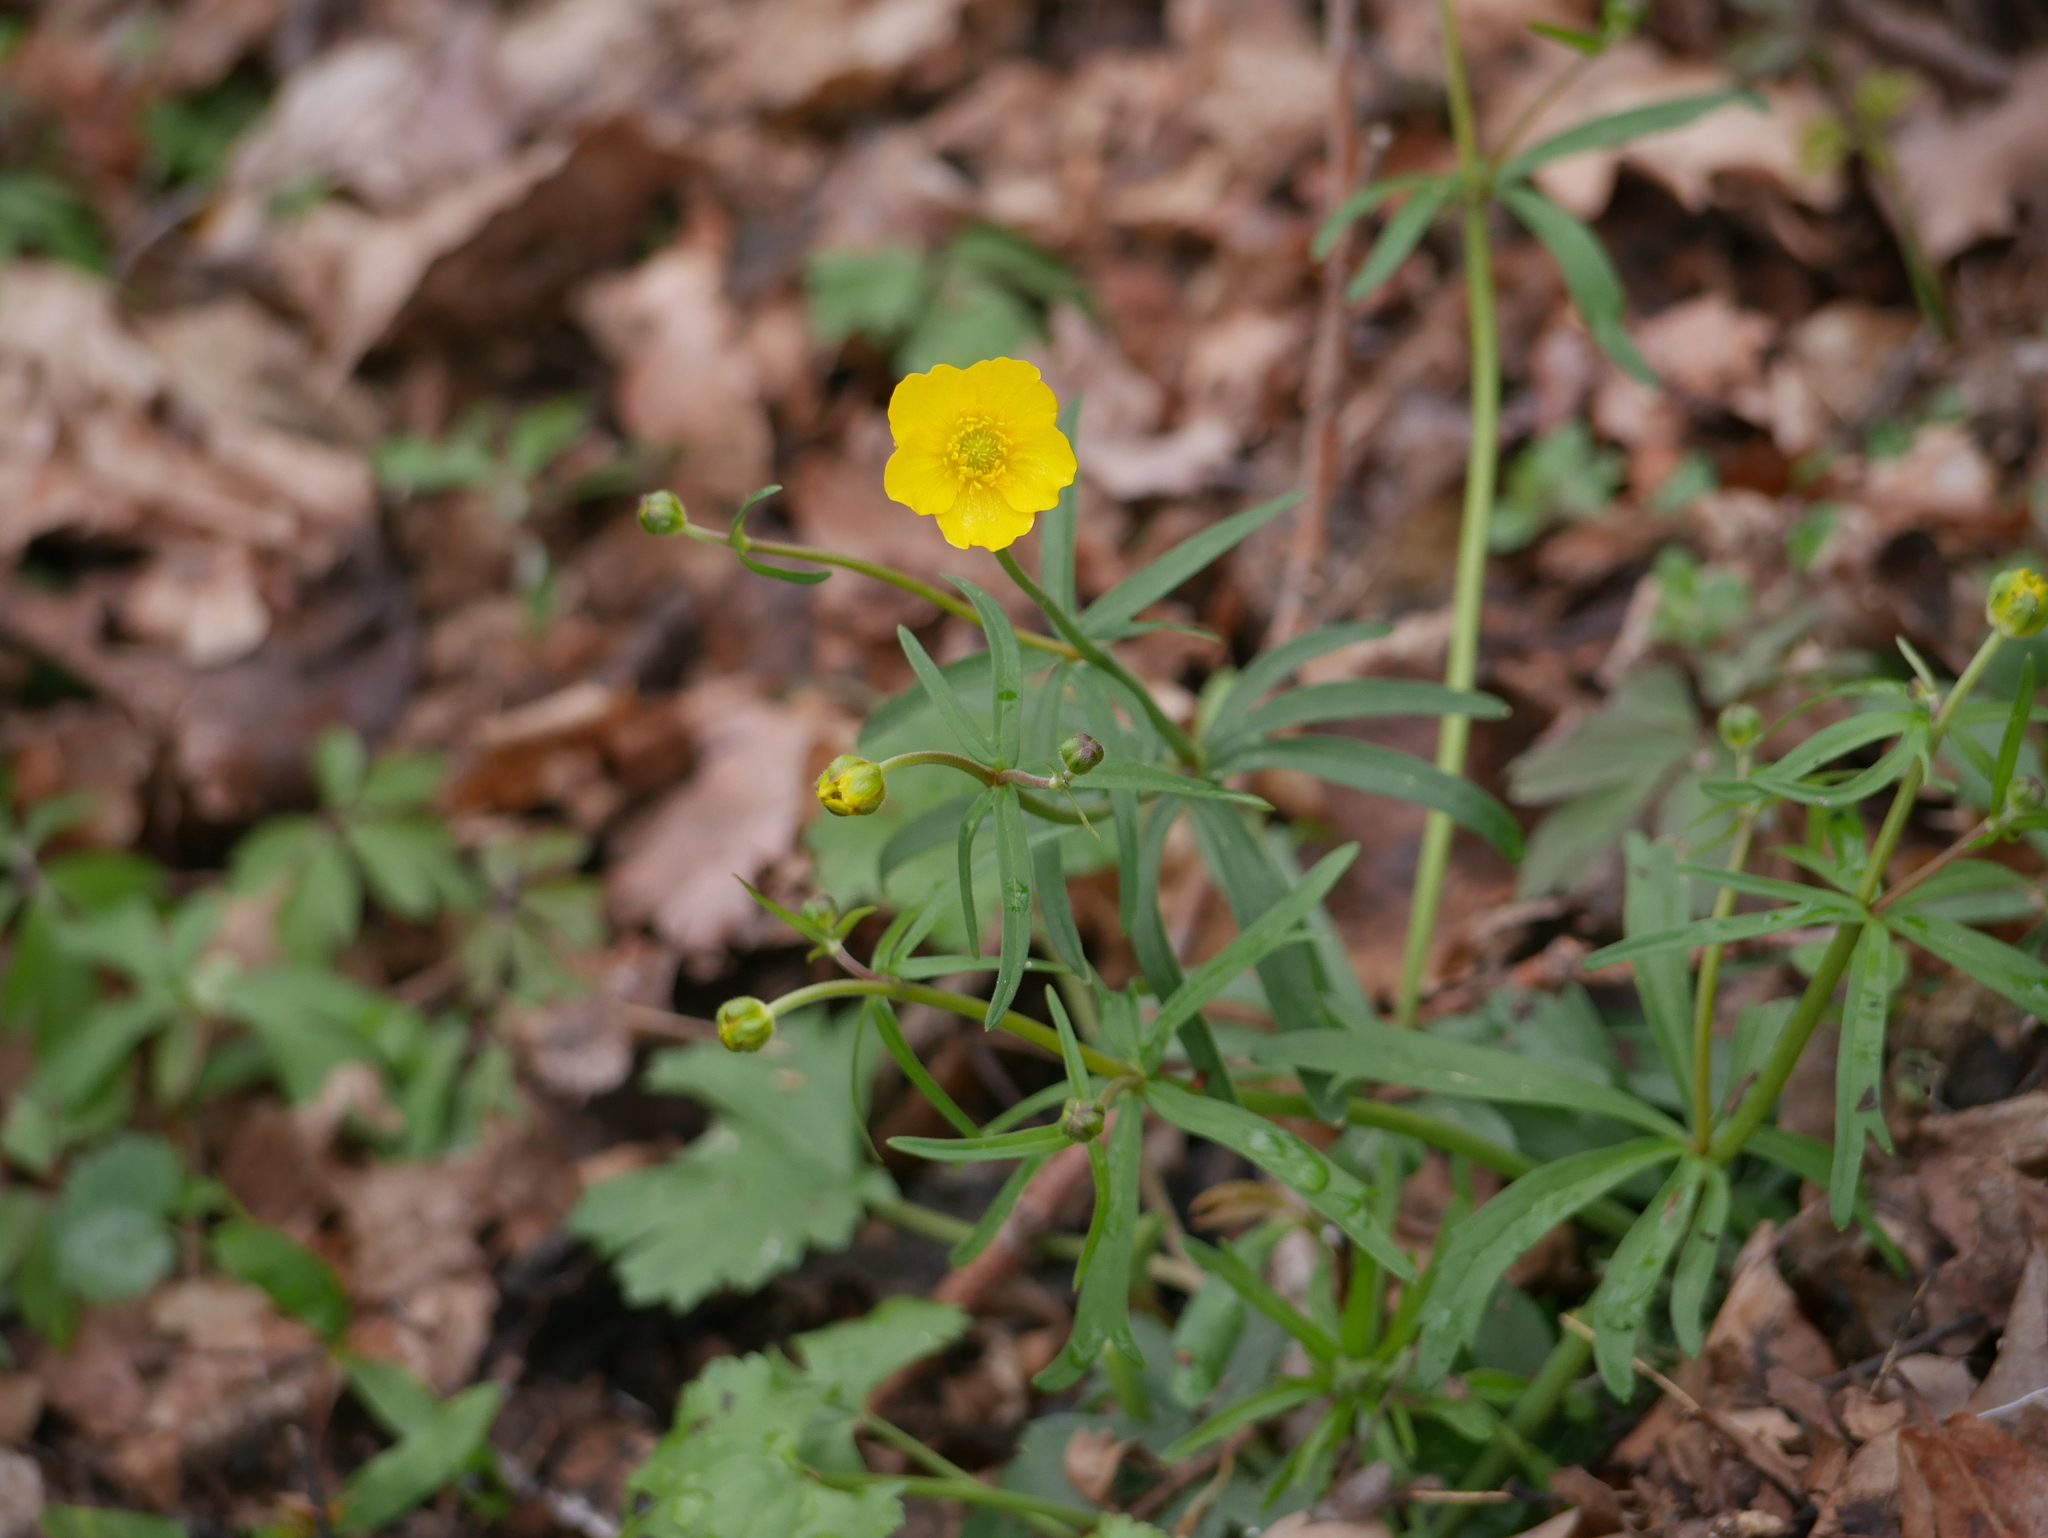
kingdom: Plantae
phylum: Tracheophyta
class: Magnoliopsida
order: Ranunculales
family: Ranunculaceae
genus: Ranunculus
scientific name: Ranunculus auricomus
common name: Goldilocks buttercup
